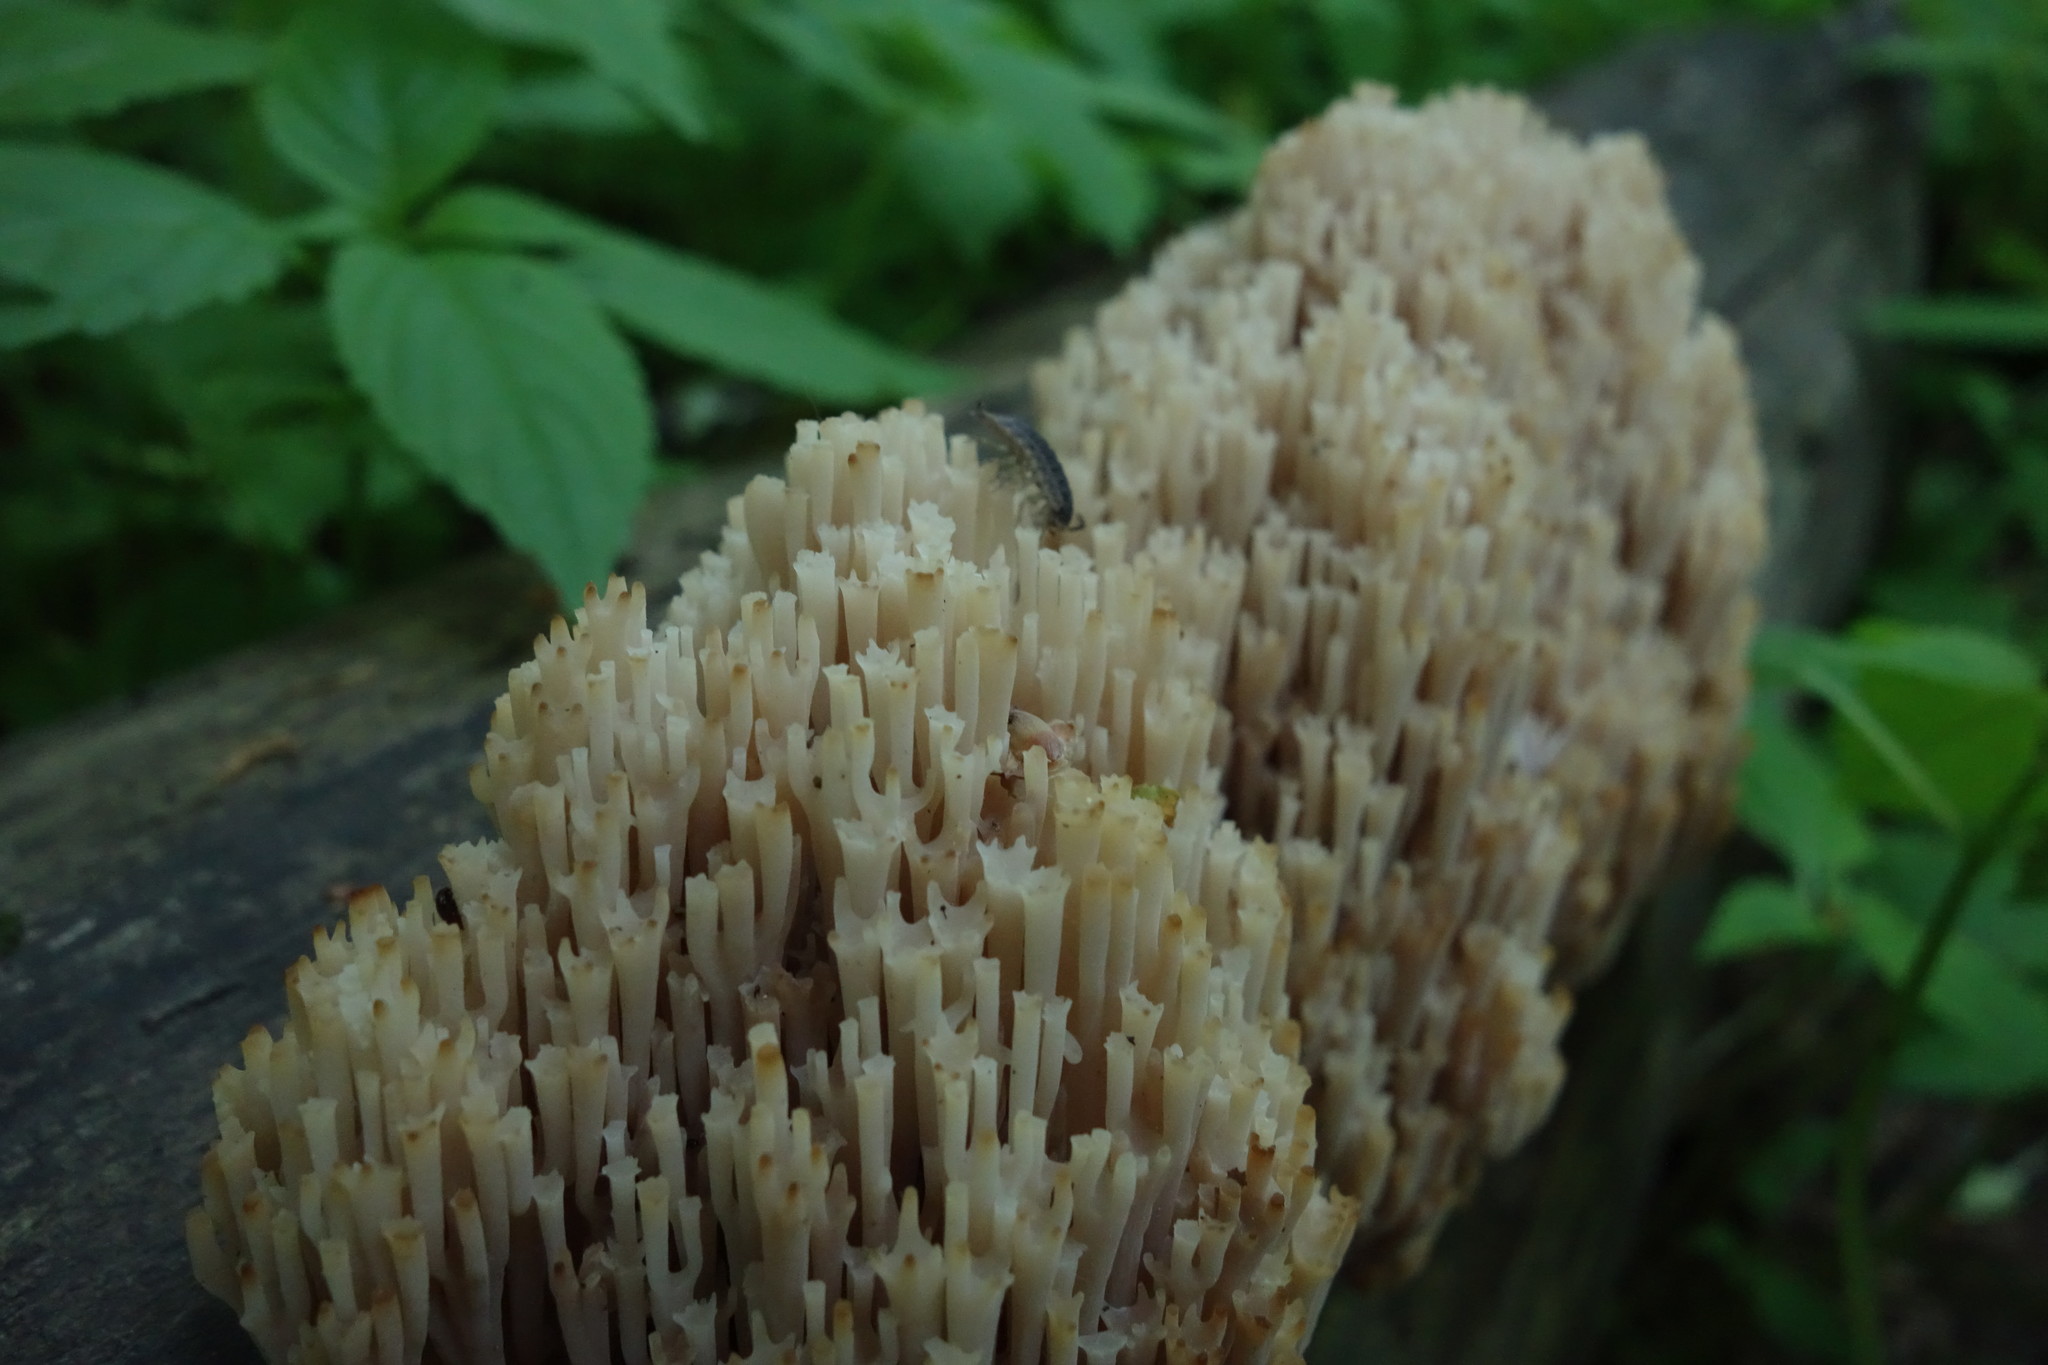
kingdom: Fungi
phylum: Basidiomycota
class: Agaricomycetes
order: Russulales
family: Auriscalpiaceae
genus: Artomyces
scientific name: Artomyces pyxidatus
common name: Crown-tipped coral fungus
